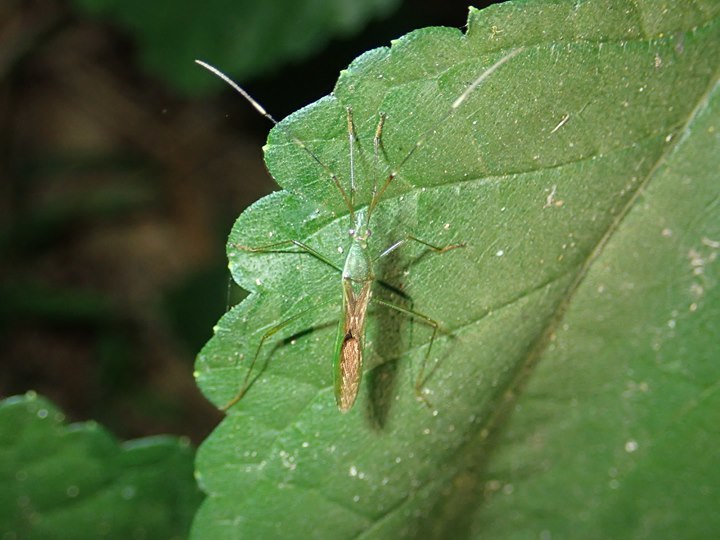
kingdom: Animalia
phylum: Arthropoda
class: Insecta
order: Hemiptera
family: Alydidae
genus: Leptocorisa
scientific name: Leptocorisa acuta
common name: Gandhi bug
